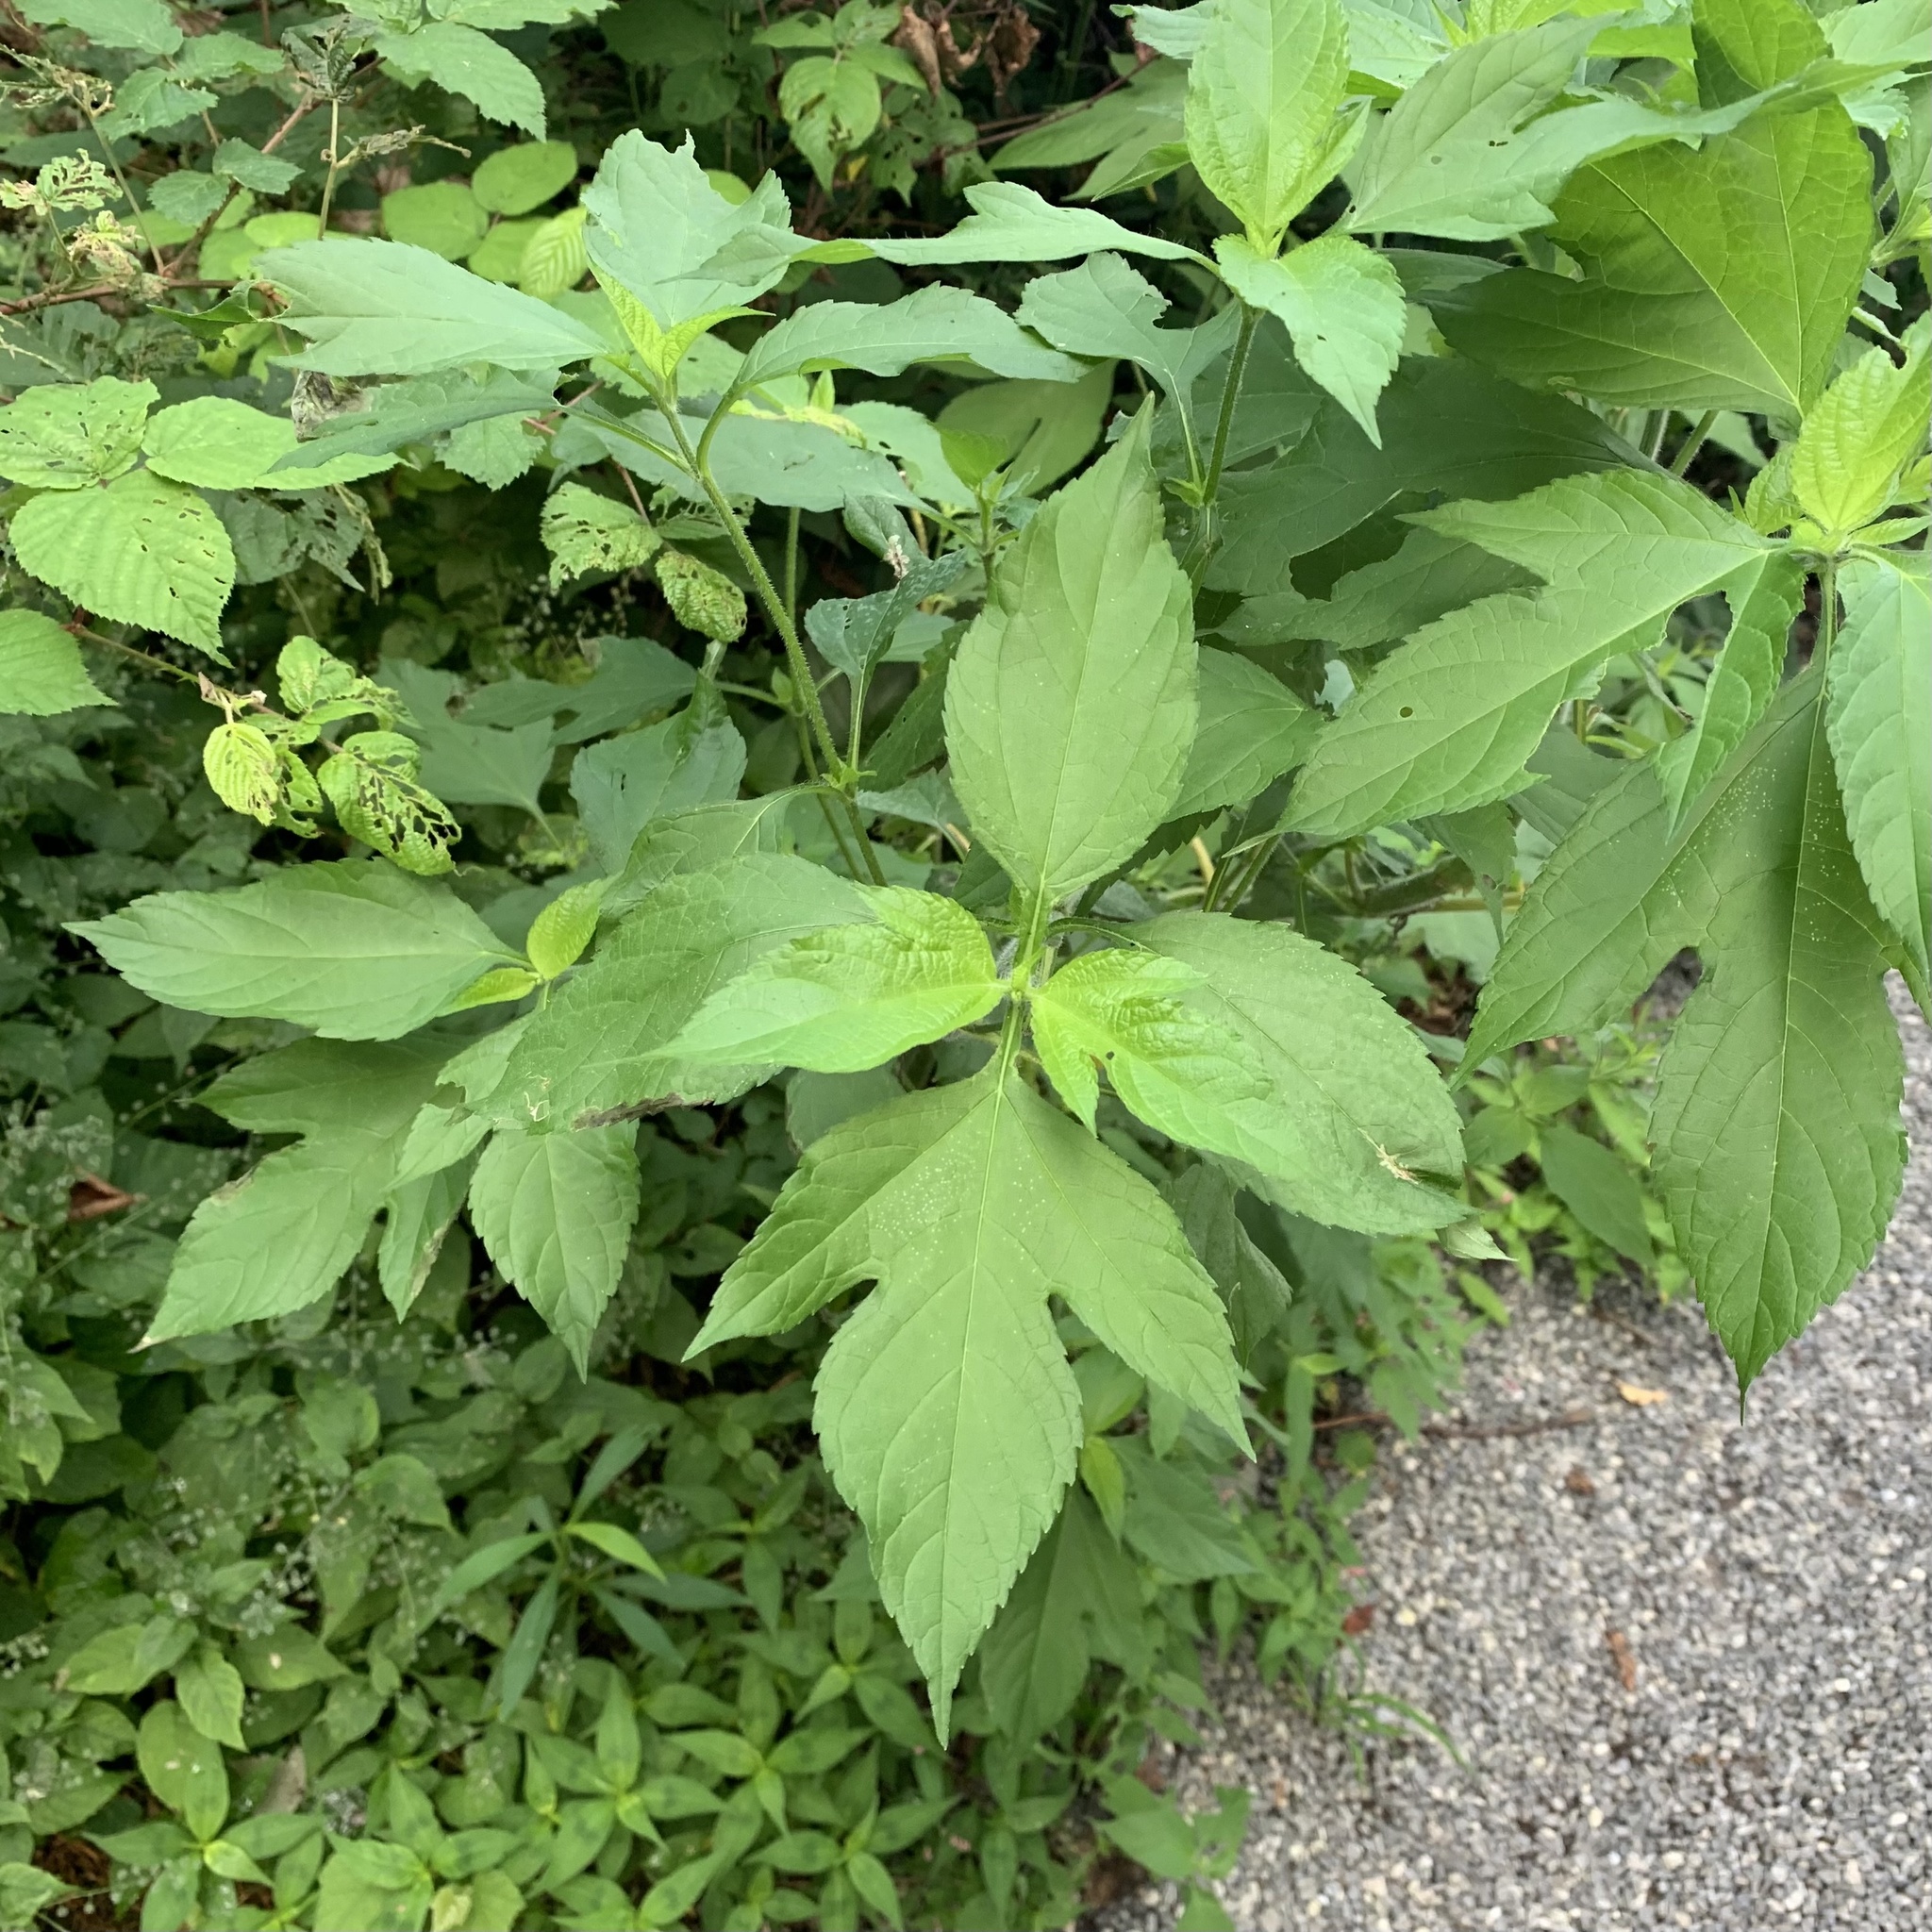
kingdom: Plantae
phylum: Tracheophyta
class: Magnoliopsida
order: Asterales
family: Asteraceae
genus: Ambrosia
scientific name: Ambrosia trifida
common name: Giant ragweed
